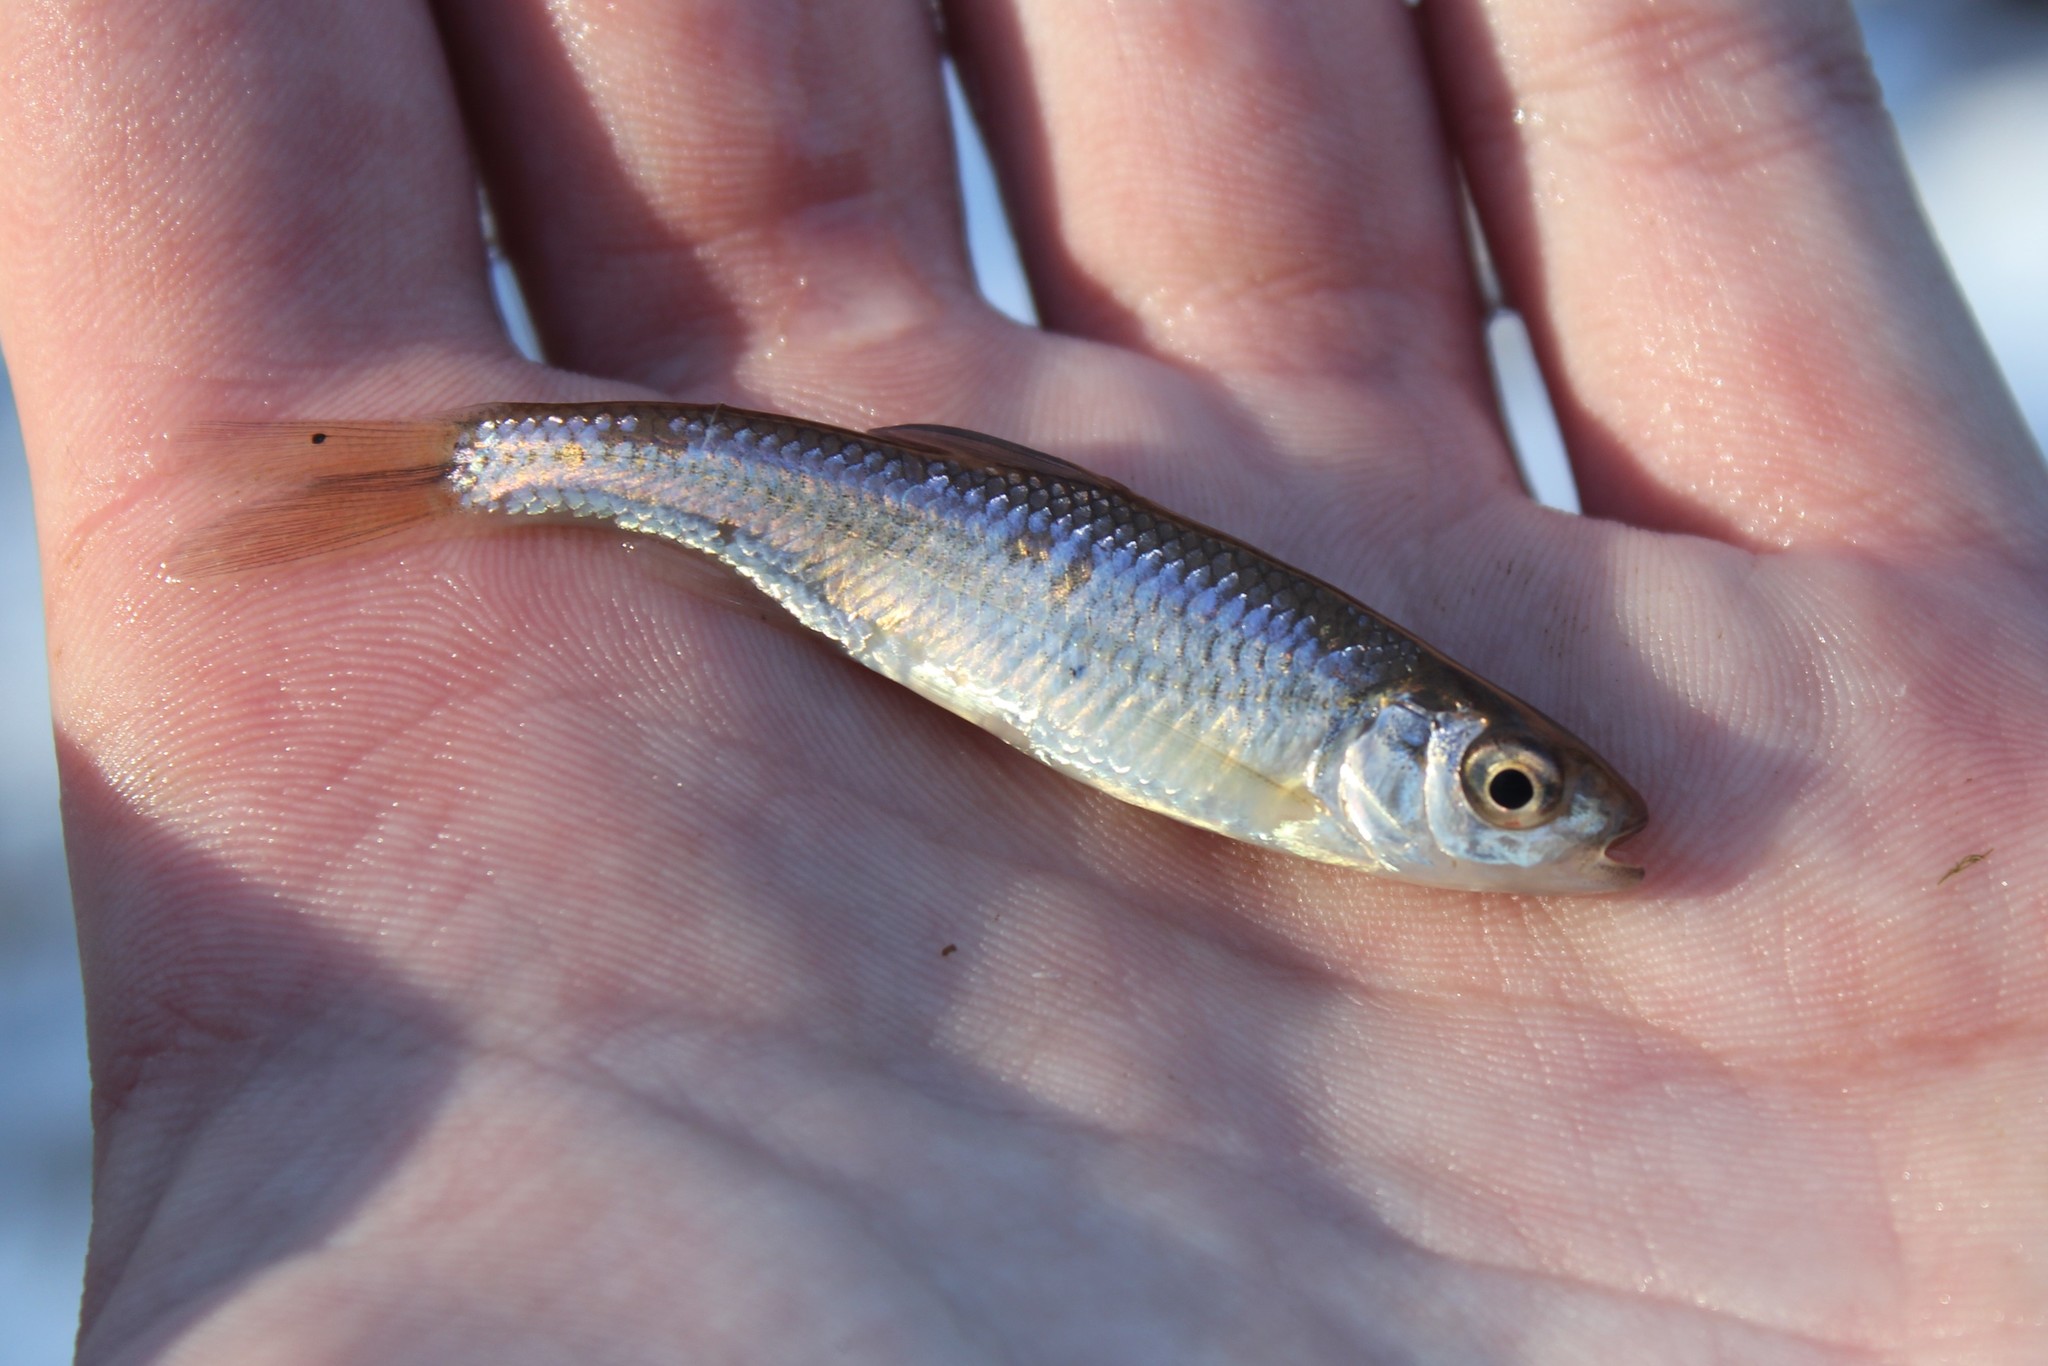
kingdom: Animalia
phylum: Chordata
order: Cypriniformes
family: Cyprinidae
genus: Luxilus
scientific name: Luxilus chrysocephalus
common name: Striped shiner
